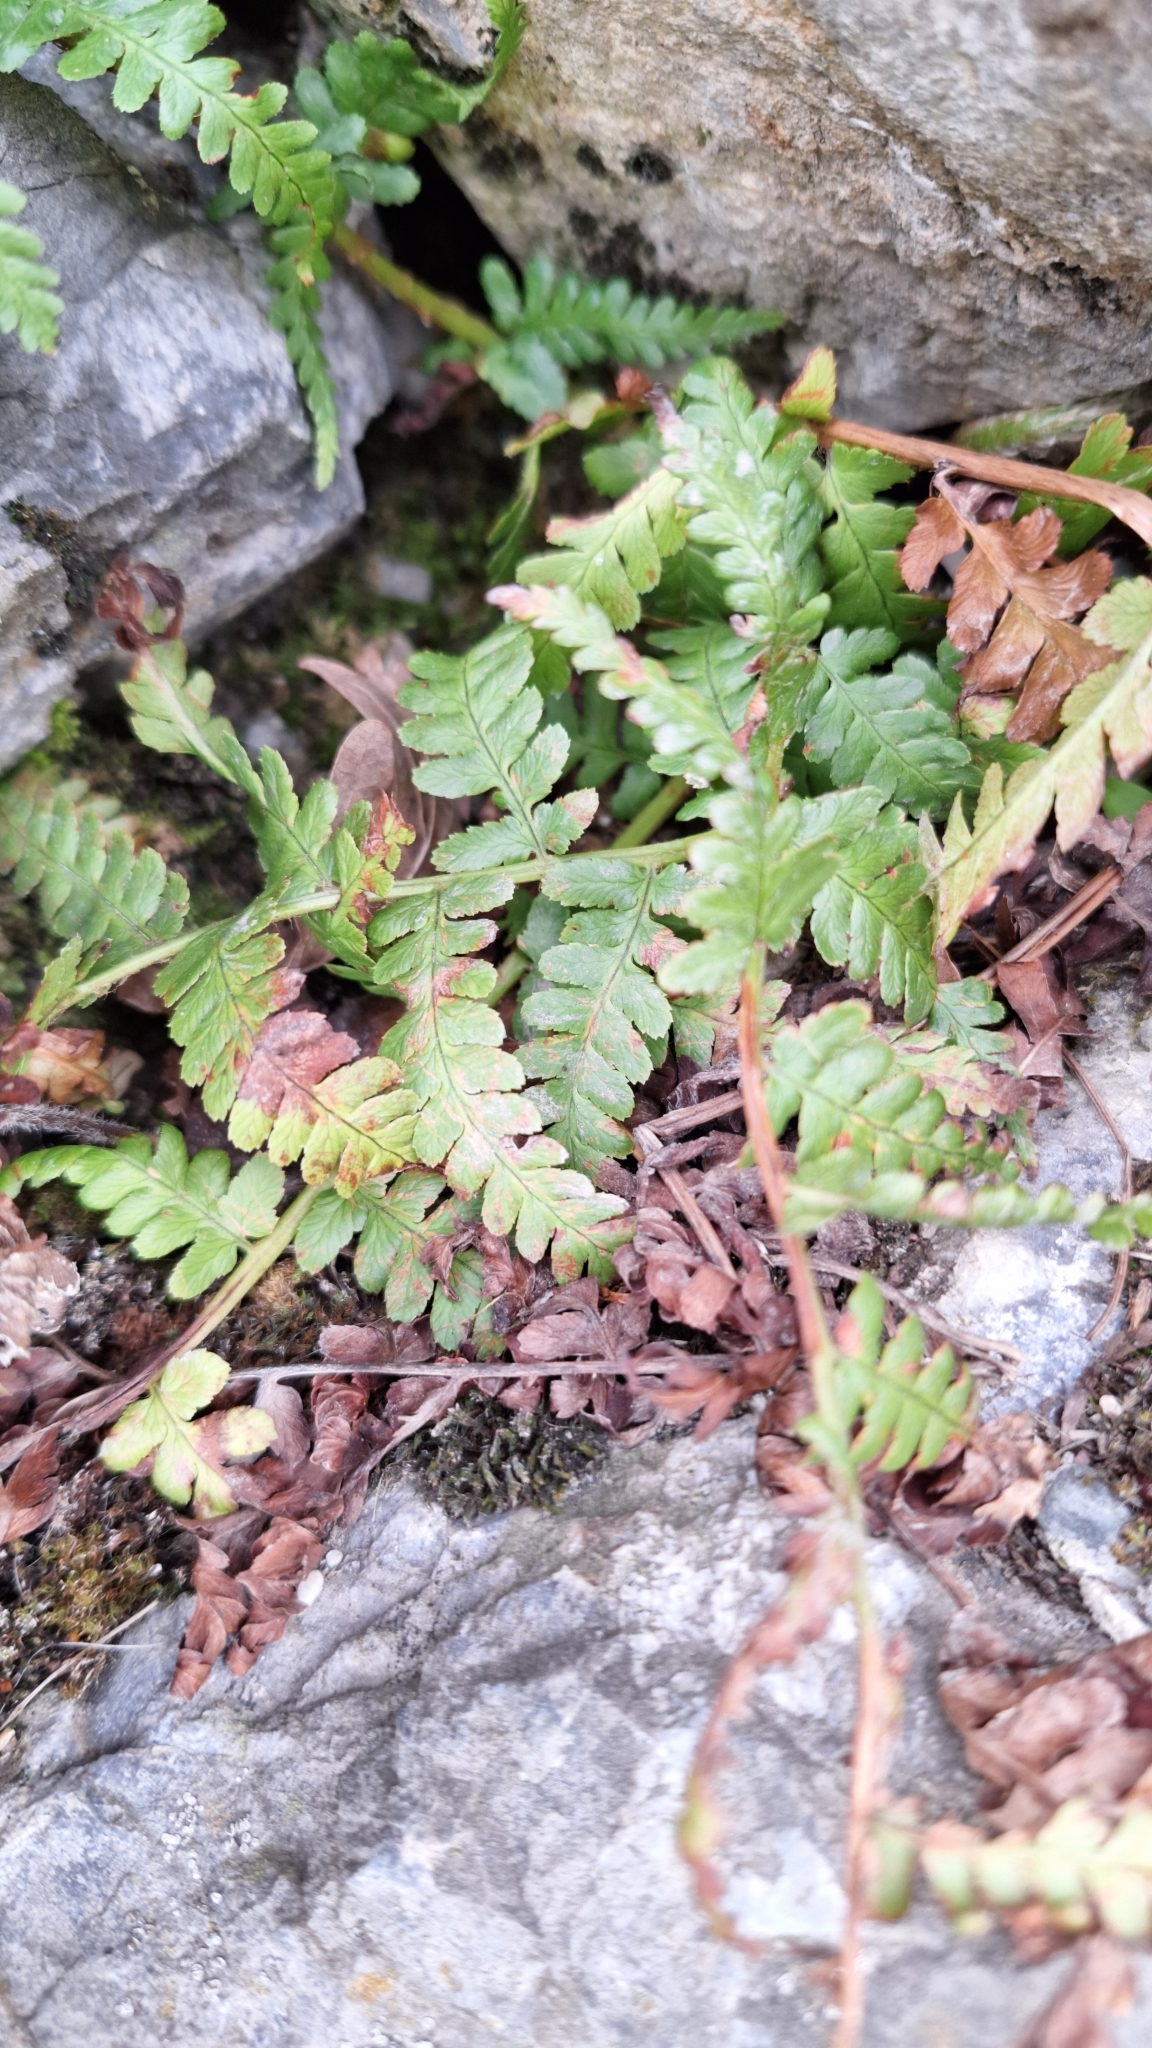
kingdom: Plantae
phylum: Tracheophyta
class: Polypodiopsida
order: Polypodiales
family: Dryopteridaceae
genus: Dryopteris
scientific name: Dryopteris filix-mas
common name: Male fern
